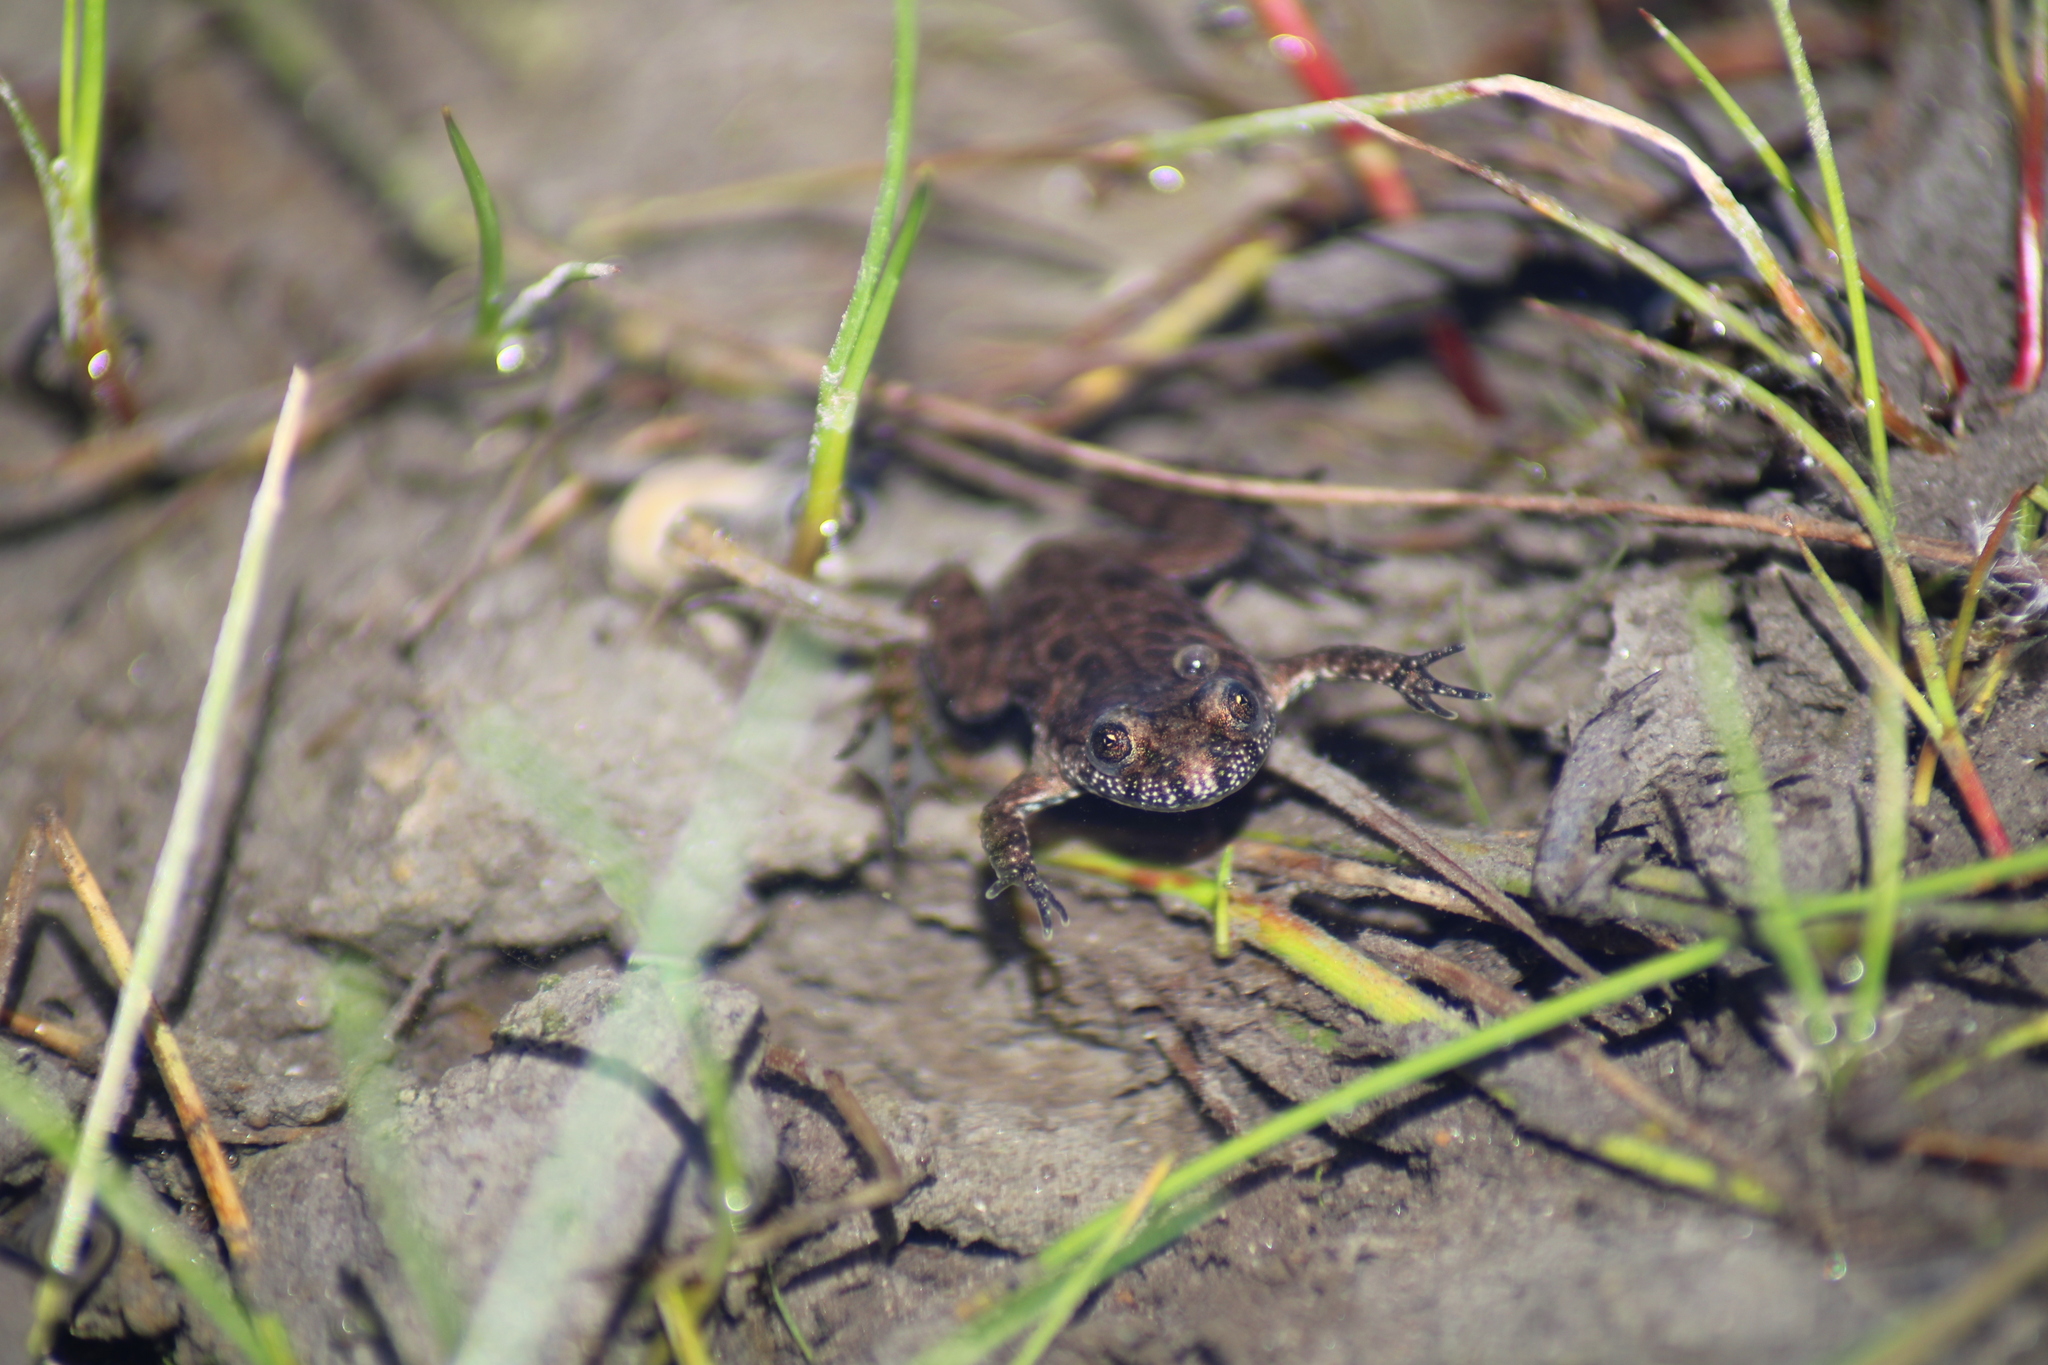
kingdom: Animalia
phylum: Chordata
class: Amphibia
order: Anura
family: Bombinatoridae
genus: Bombina
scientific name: Bombina bombina
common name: Fire-bellied toad
